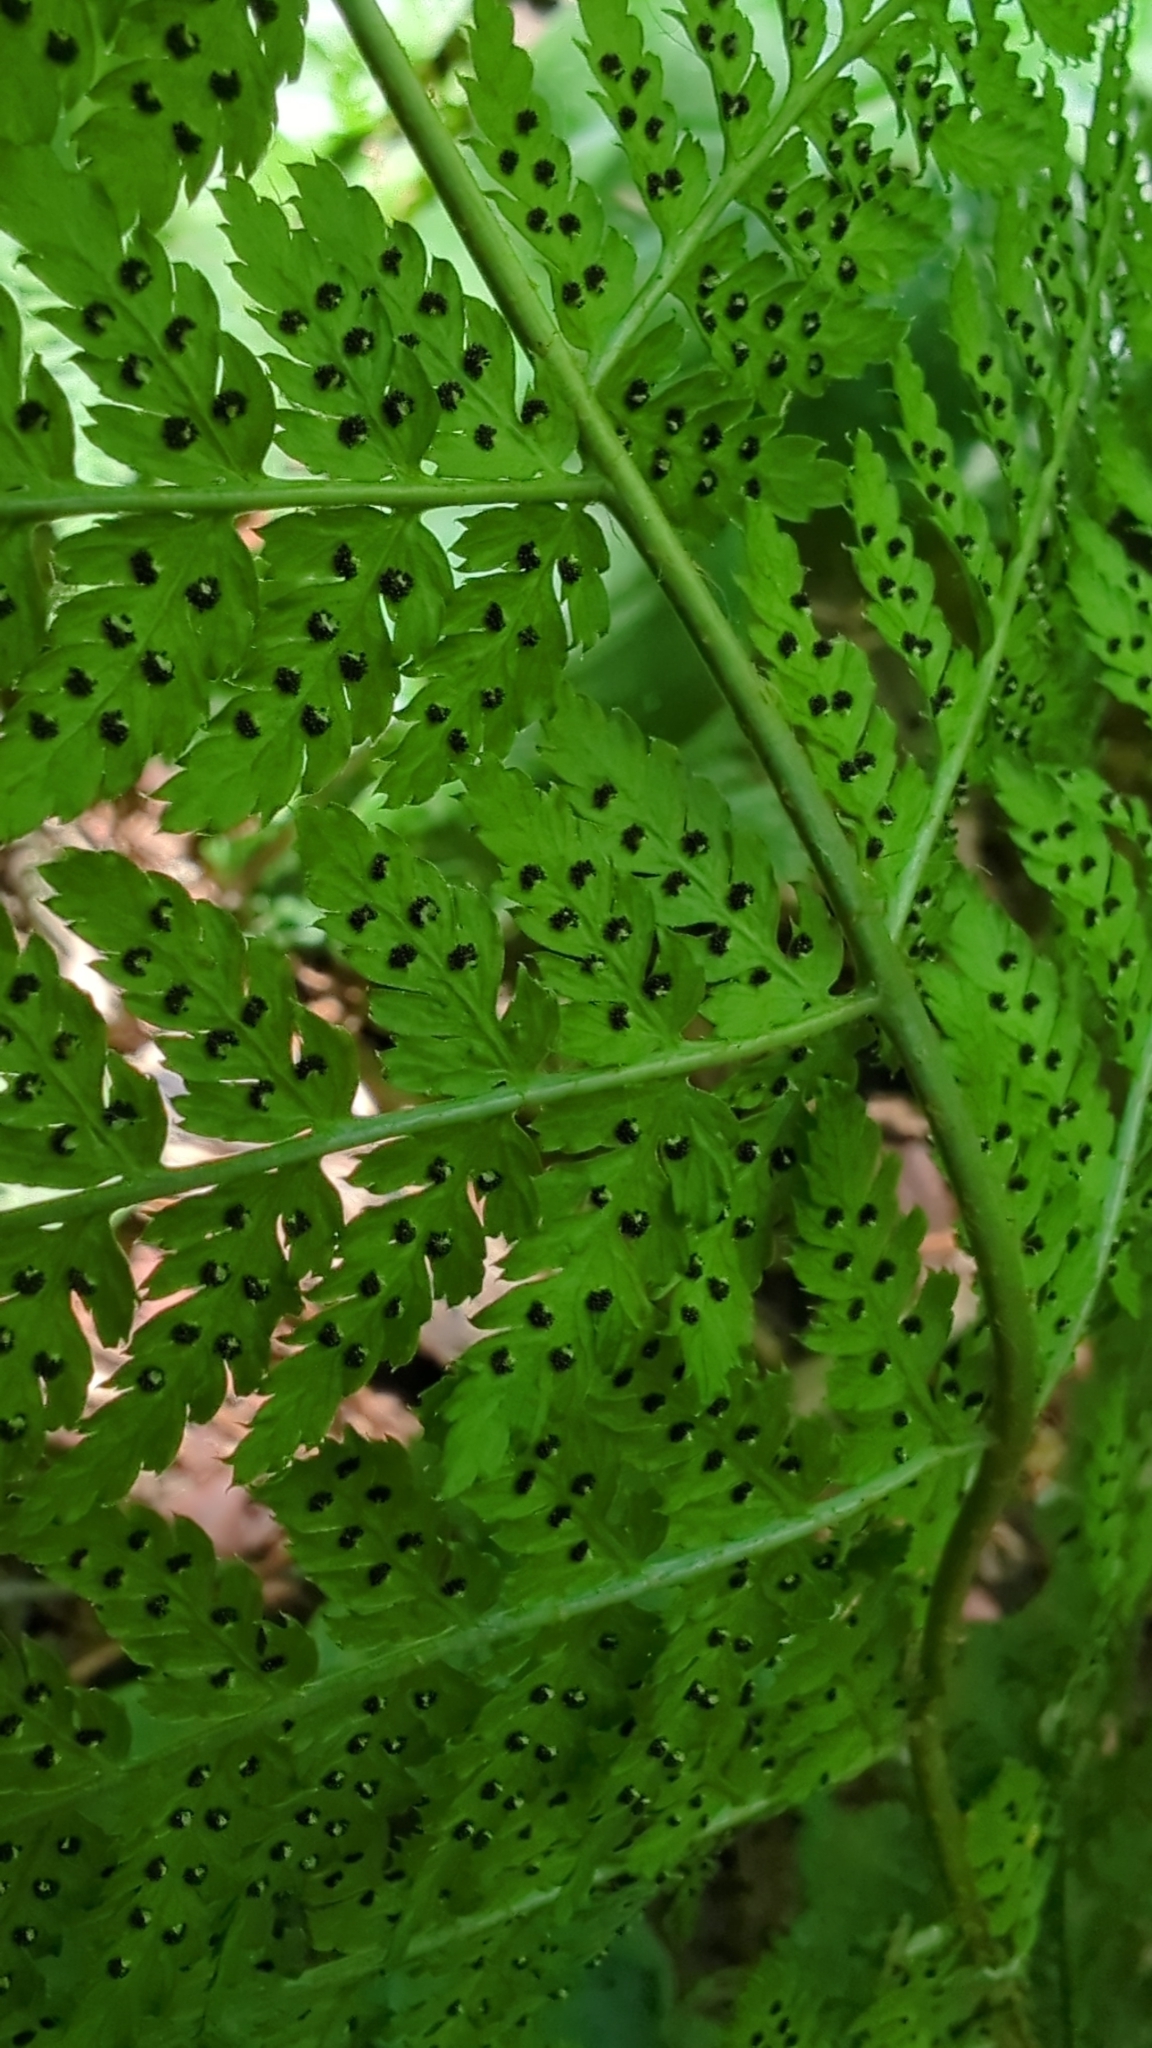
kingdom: Plantae
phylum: Tracheophyta
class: Polypodiopsida
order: Polypodiales
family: Dryopteridaceae
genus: Dryopteris
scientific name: Dryopteris expansa
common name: Northern buckler fern
